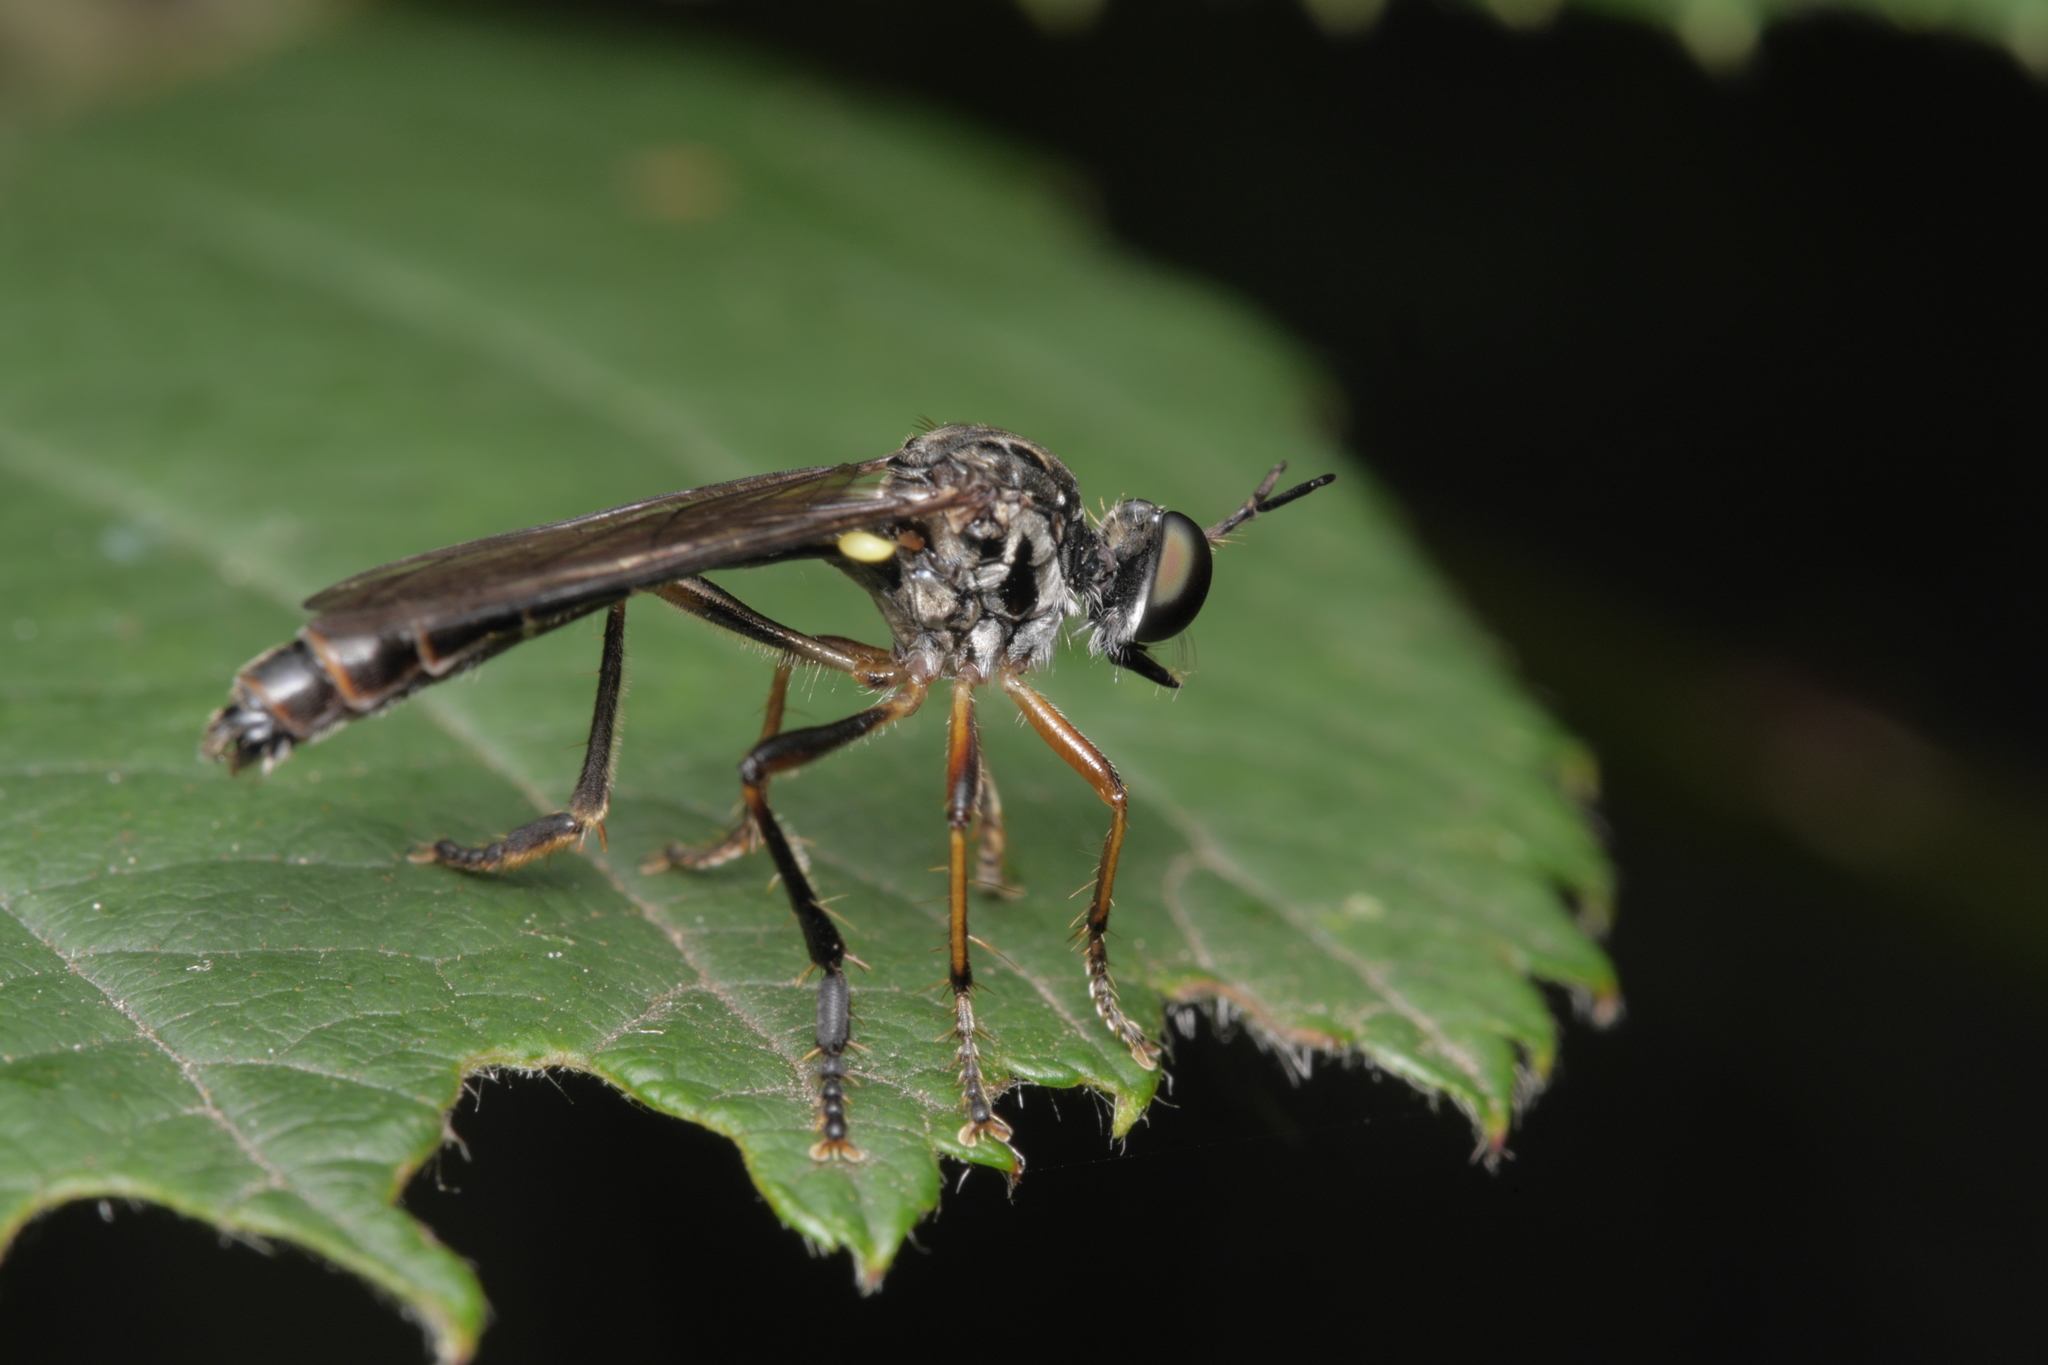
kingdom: Animalia
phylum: Arthropoda
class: Insecta
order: Diptera
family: Asilidae
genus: Dioctria
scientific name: Dioctria hyalipennis
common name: Stripe-legged robberfly
